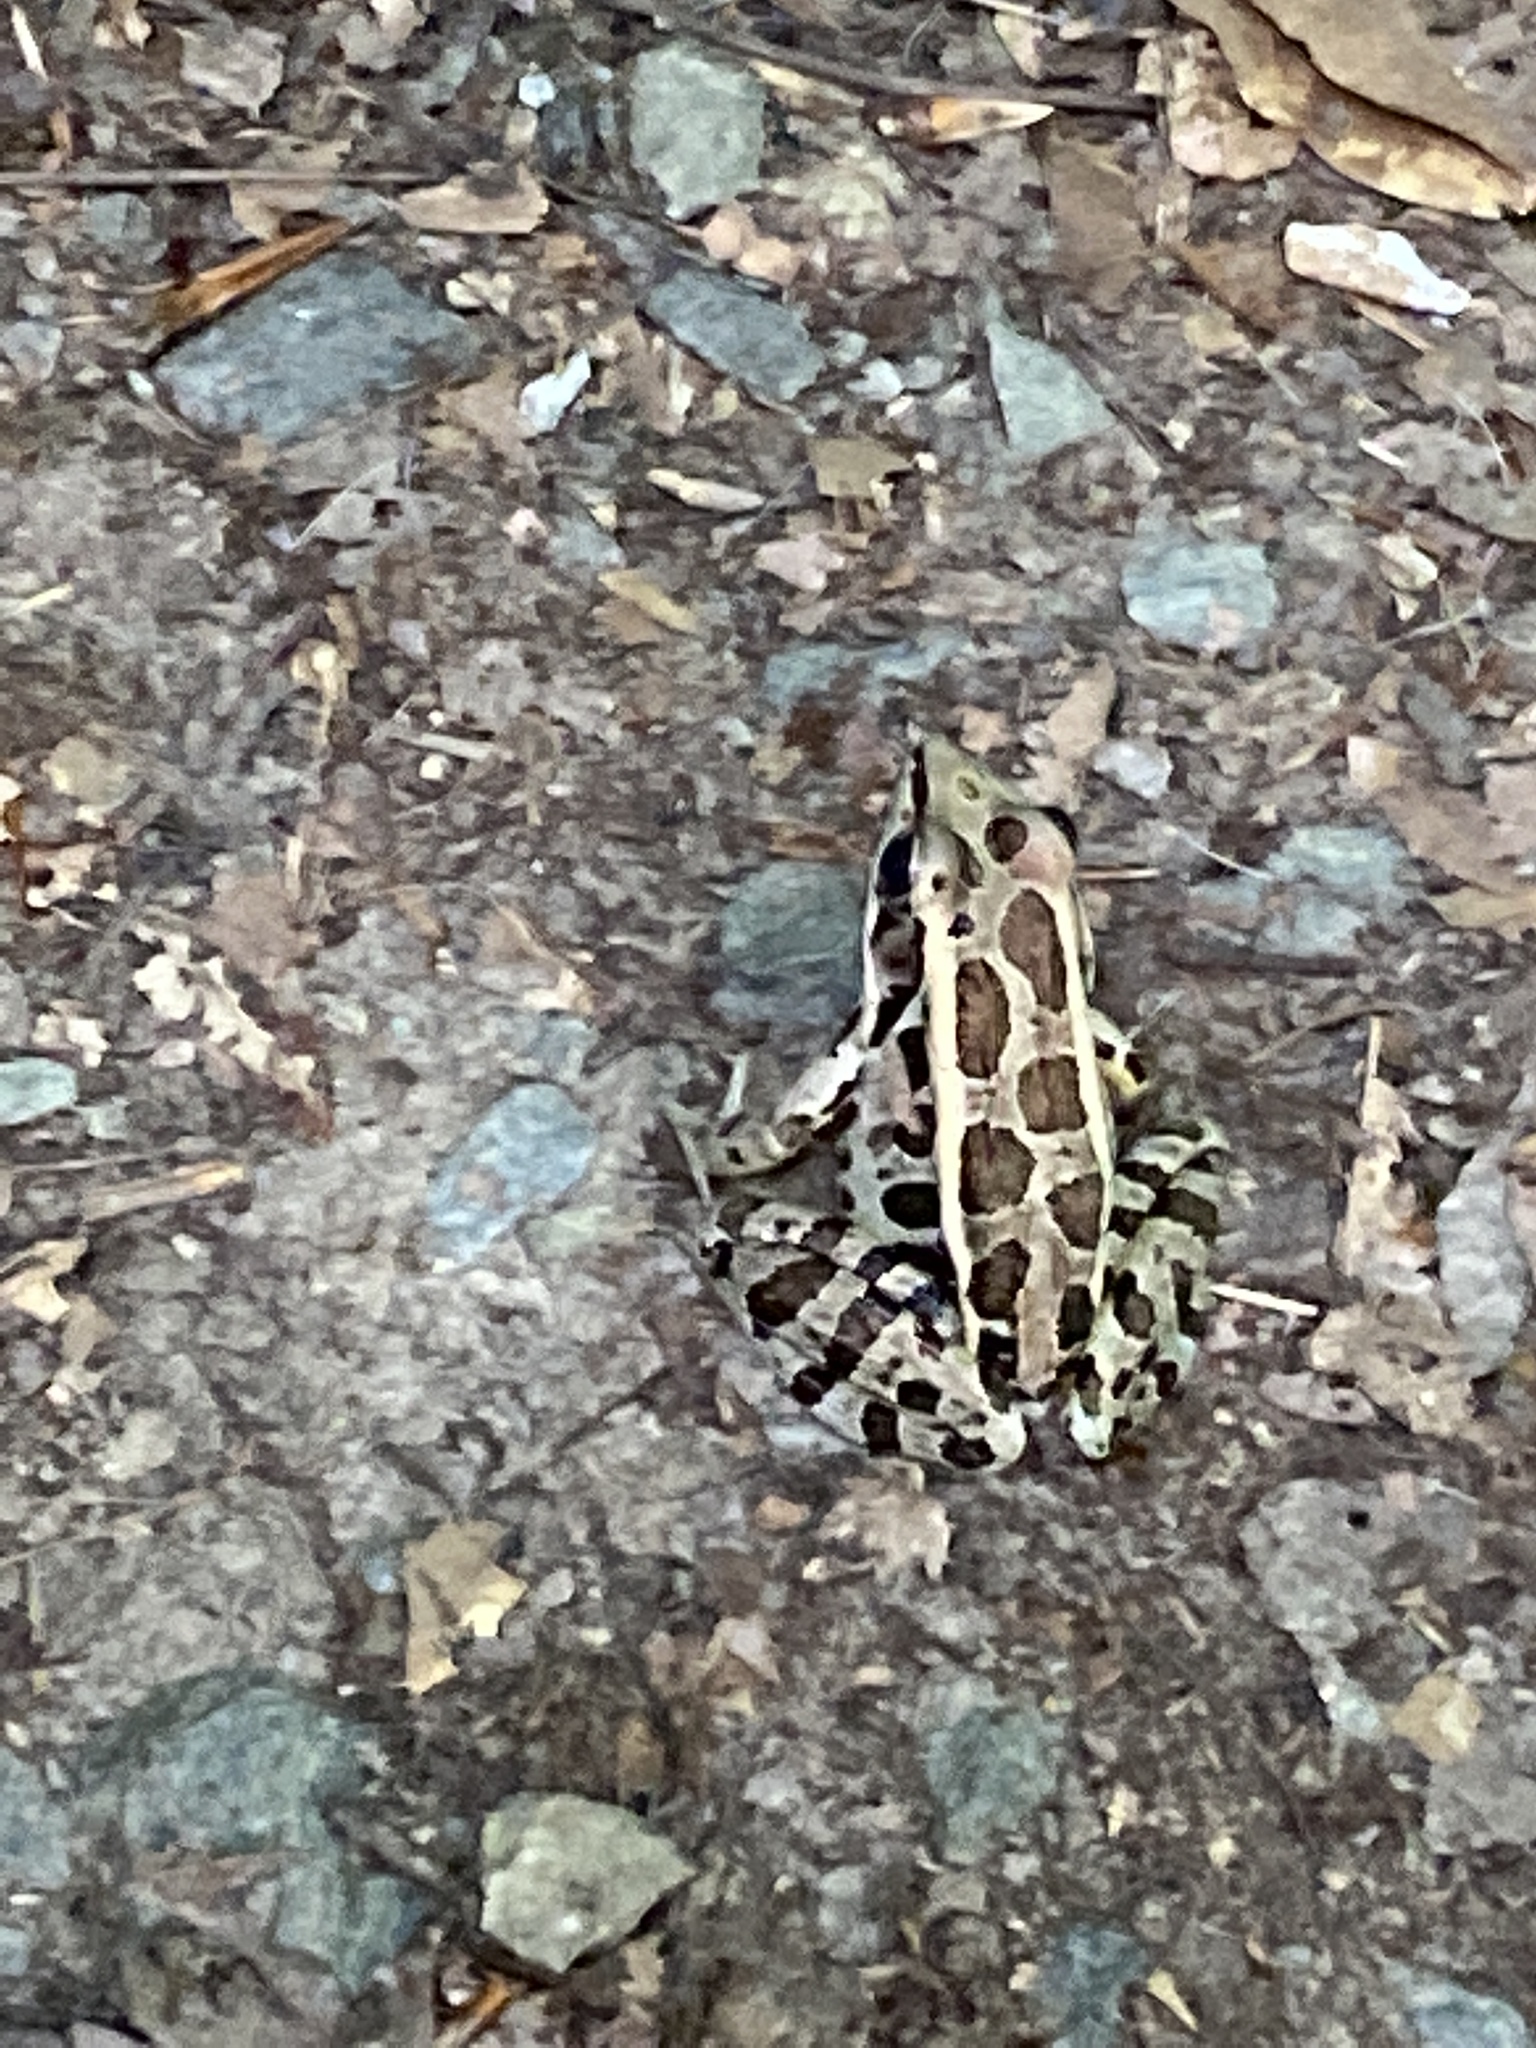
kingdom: Animalia
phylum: Chordata
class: Amphibia
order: Anura
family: Ranidae
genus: Lithobates
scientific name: Lithobates palustris
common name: Pickerel frog
